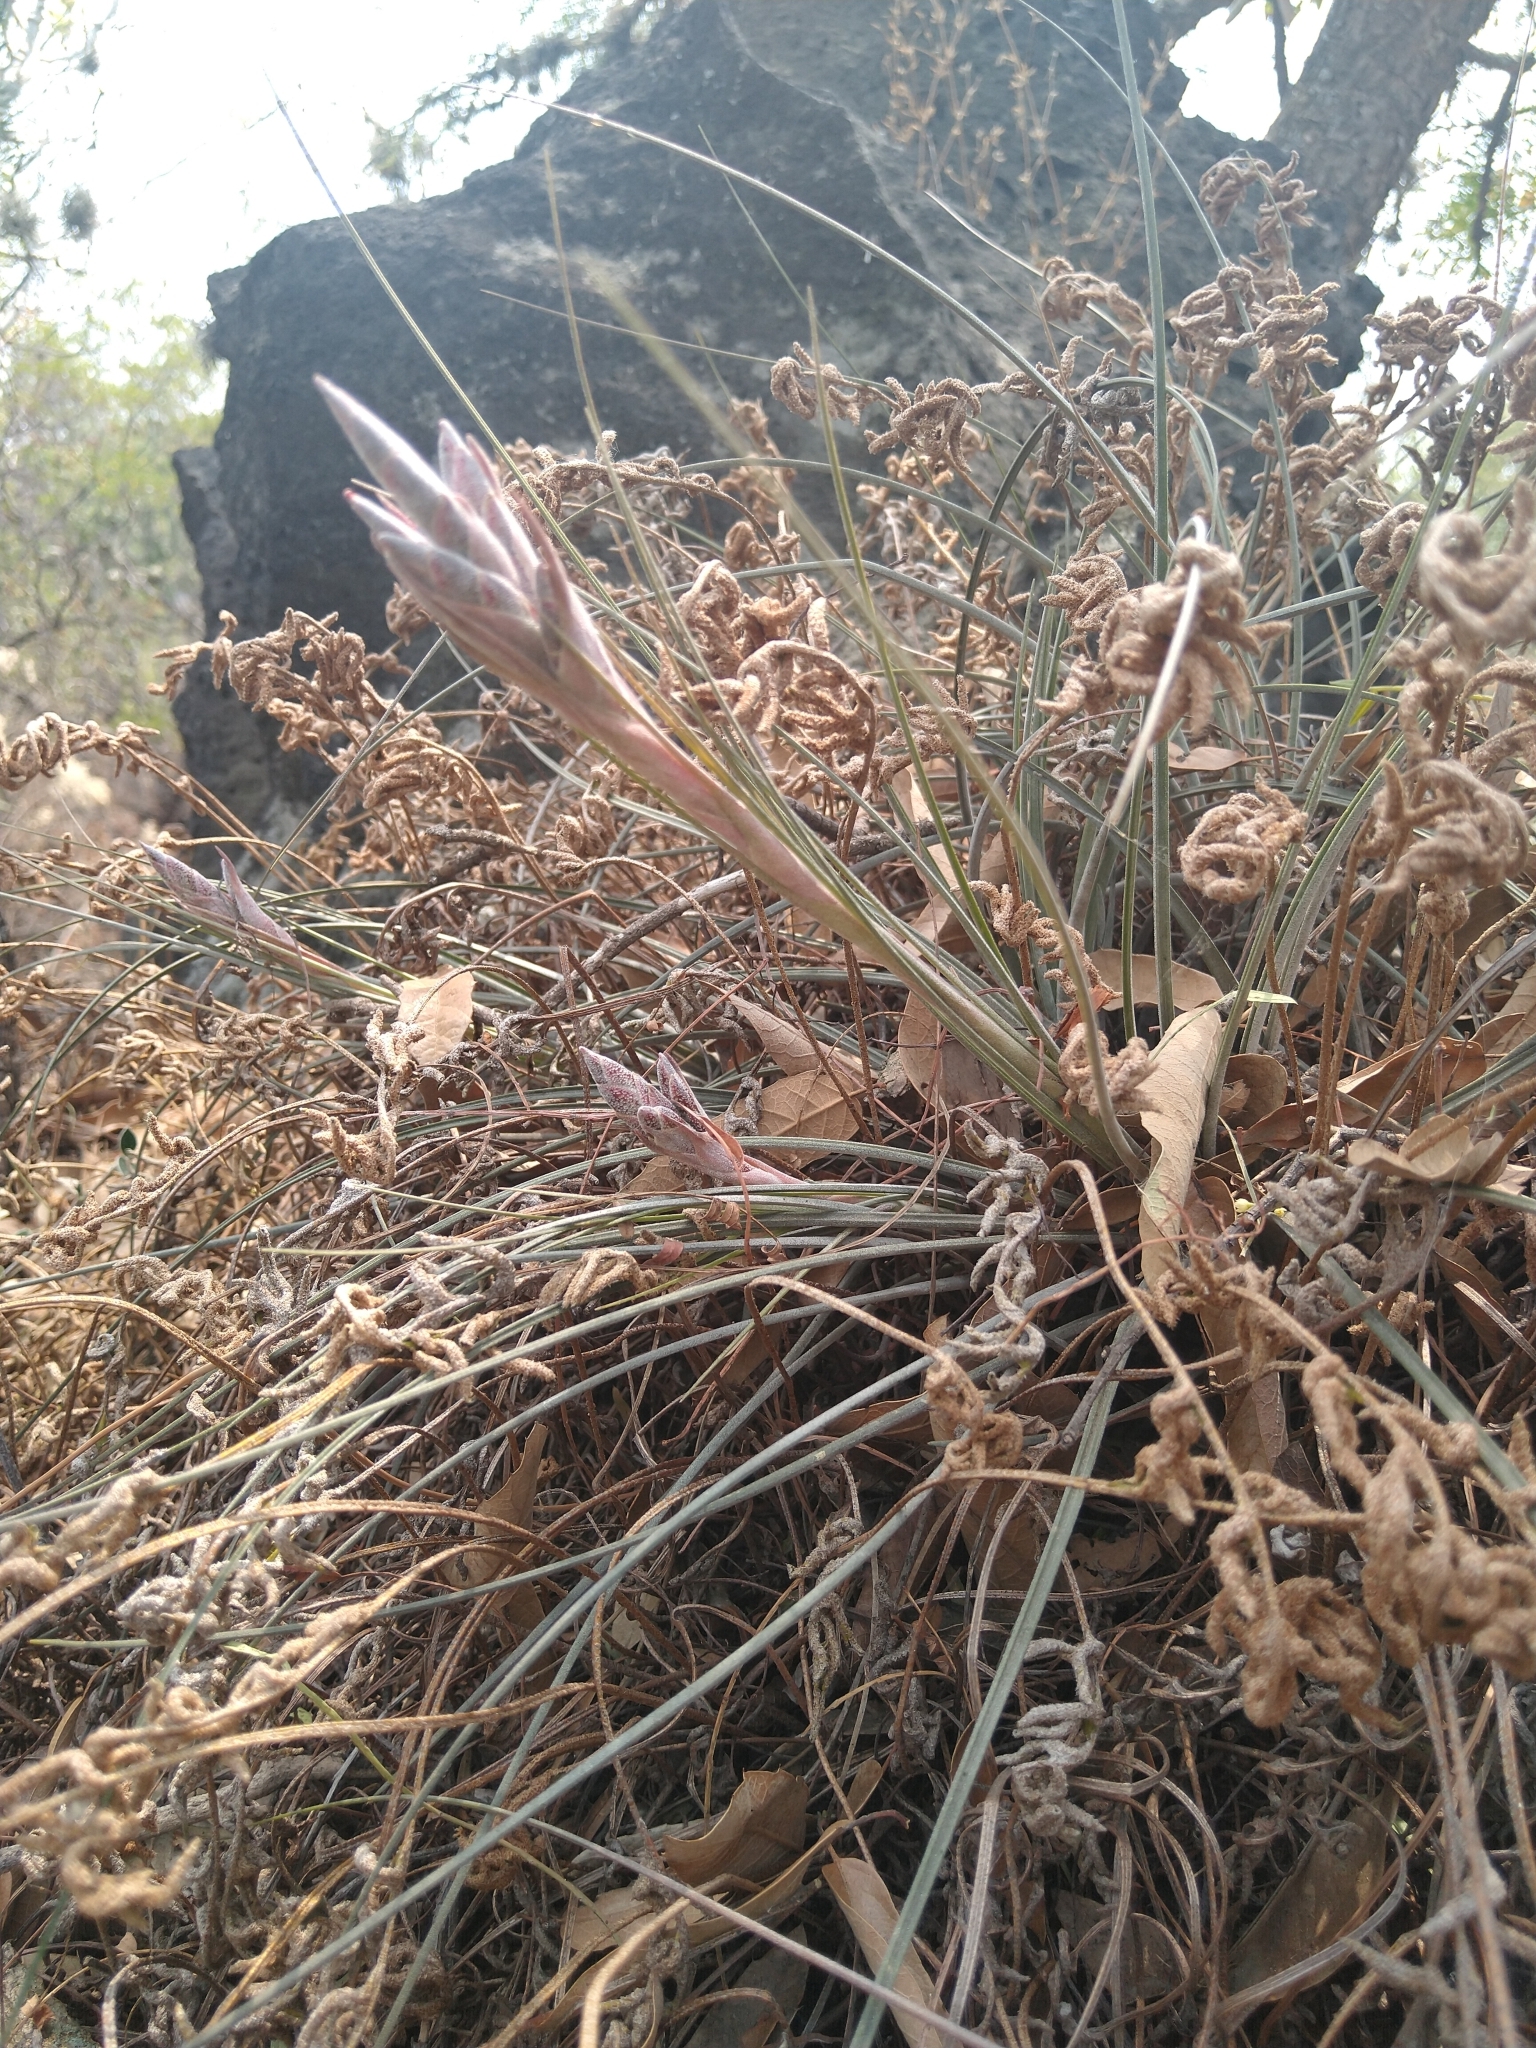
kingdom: Plantae
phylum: Tracheophyta
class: Liliopsida
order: Poales
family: Bromeliaceae
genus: Tillandsia
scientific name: Tillandsia juncea
